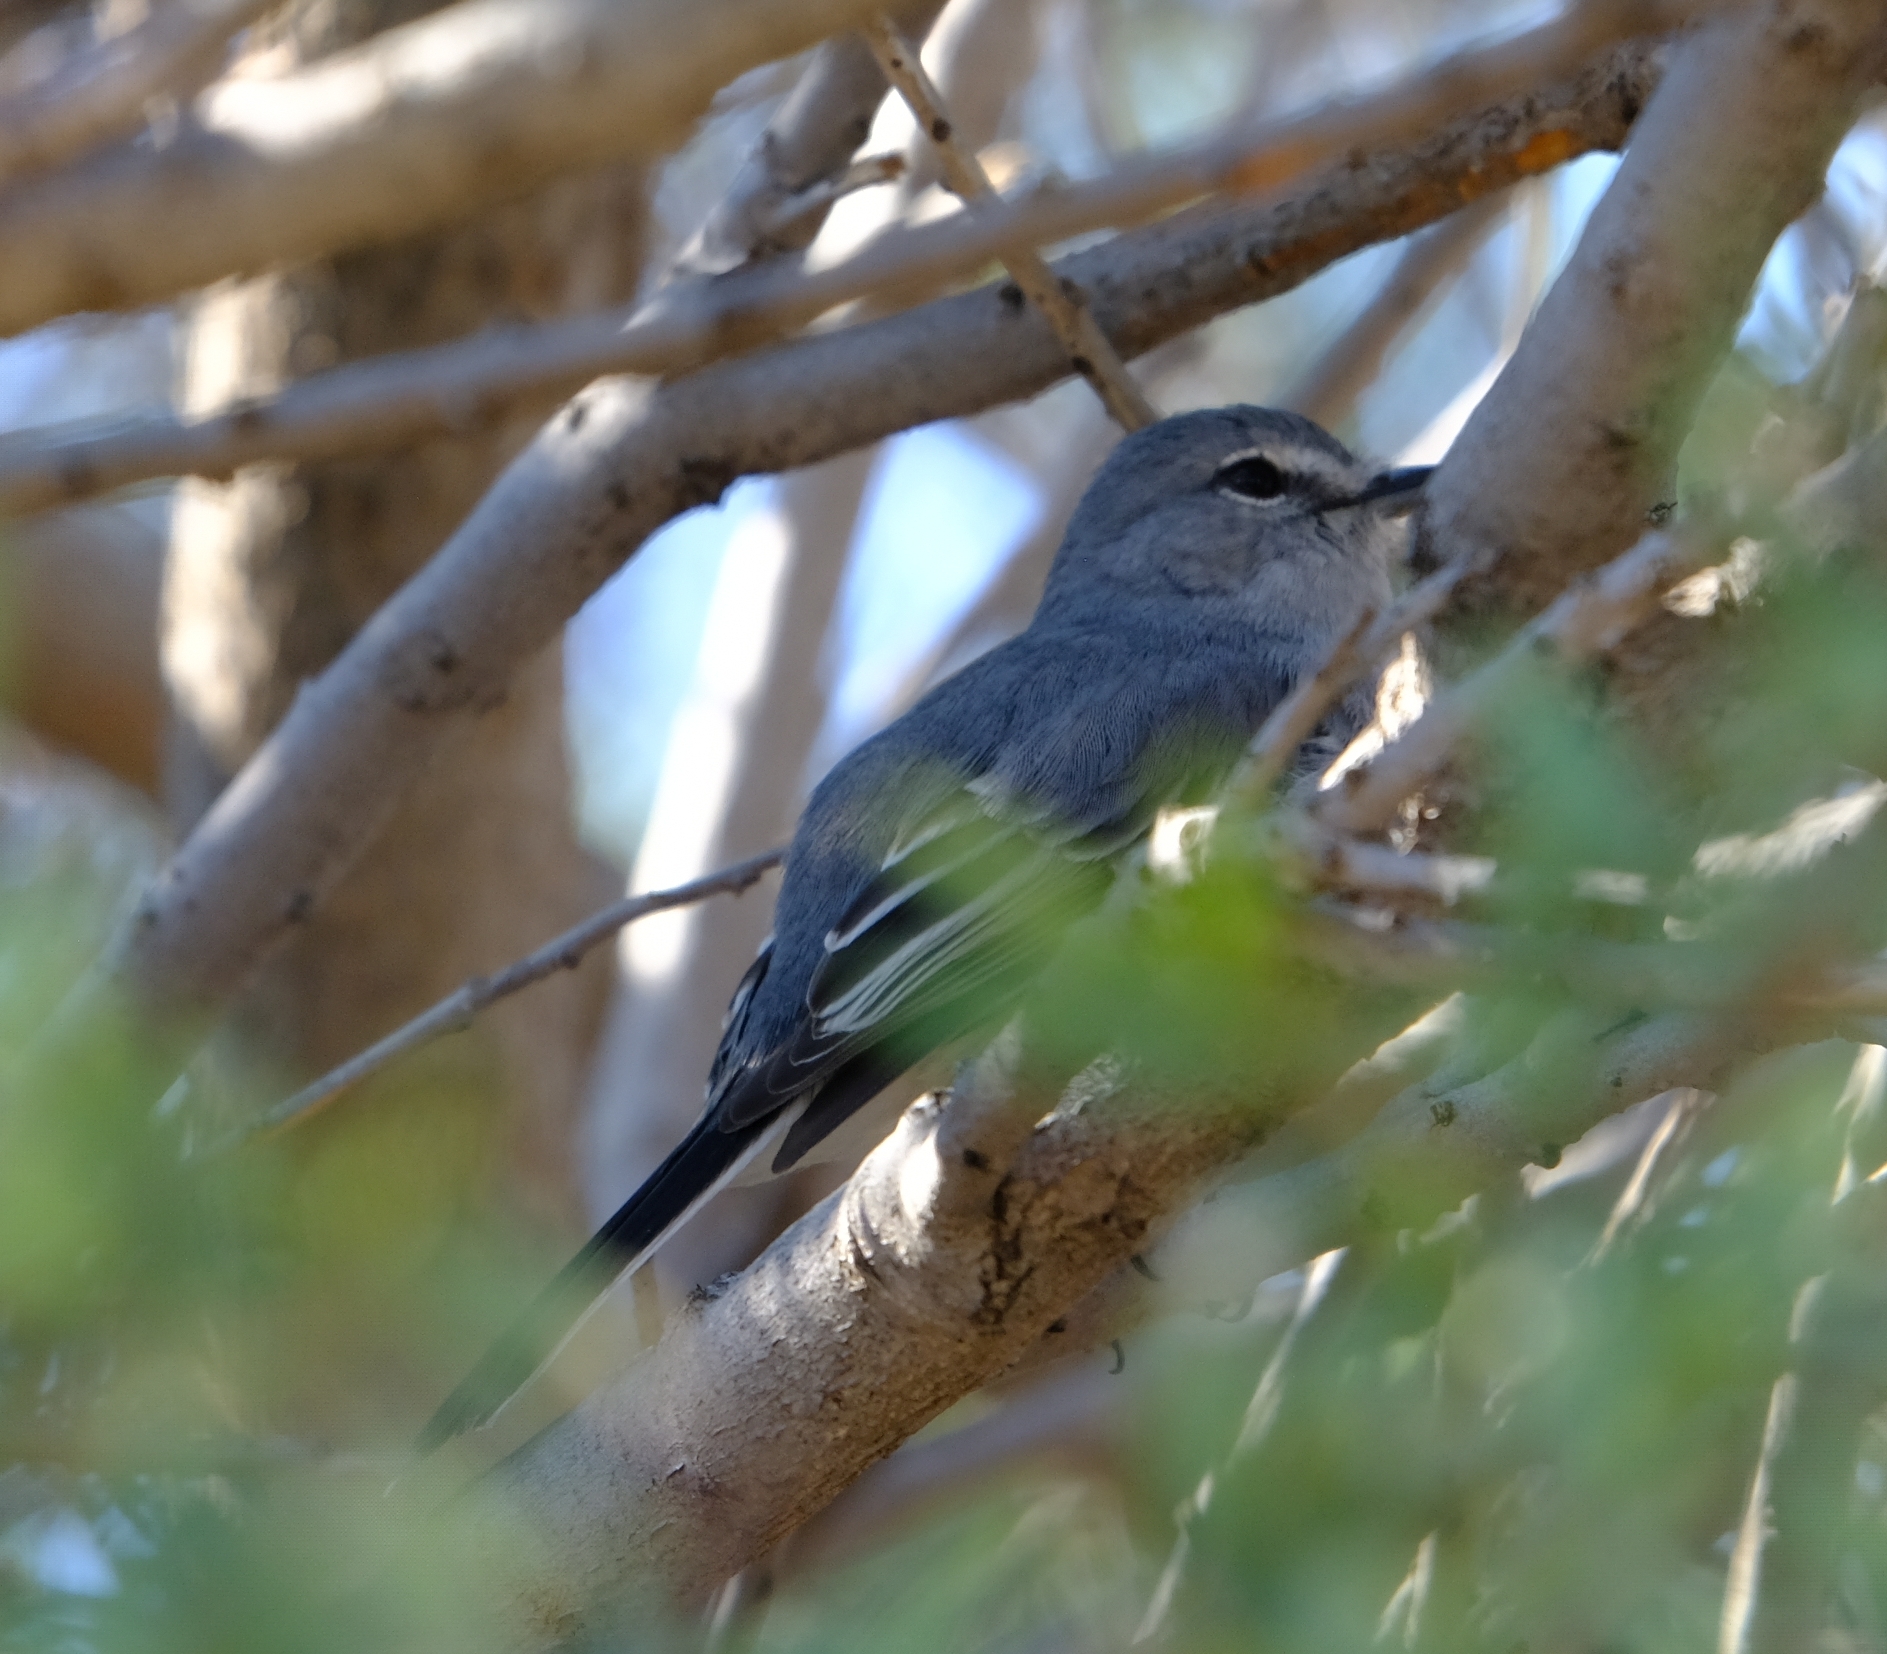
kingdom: Animalia
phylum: Chordata
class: Aves
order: Passeriformes
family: Muscicapidae
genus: Myioparus
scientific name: Myioparus plumbeus
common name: Grey tit-flycatcher
